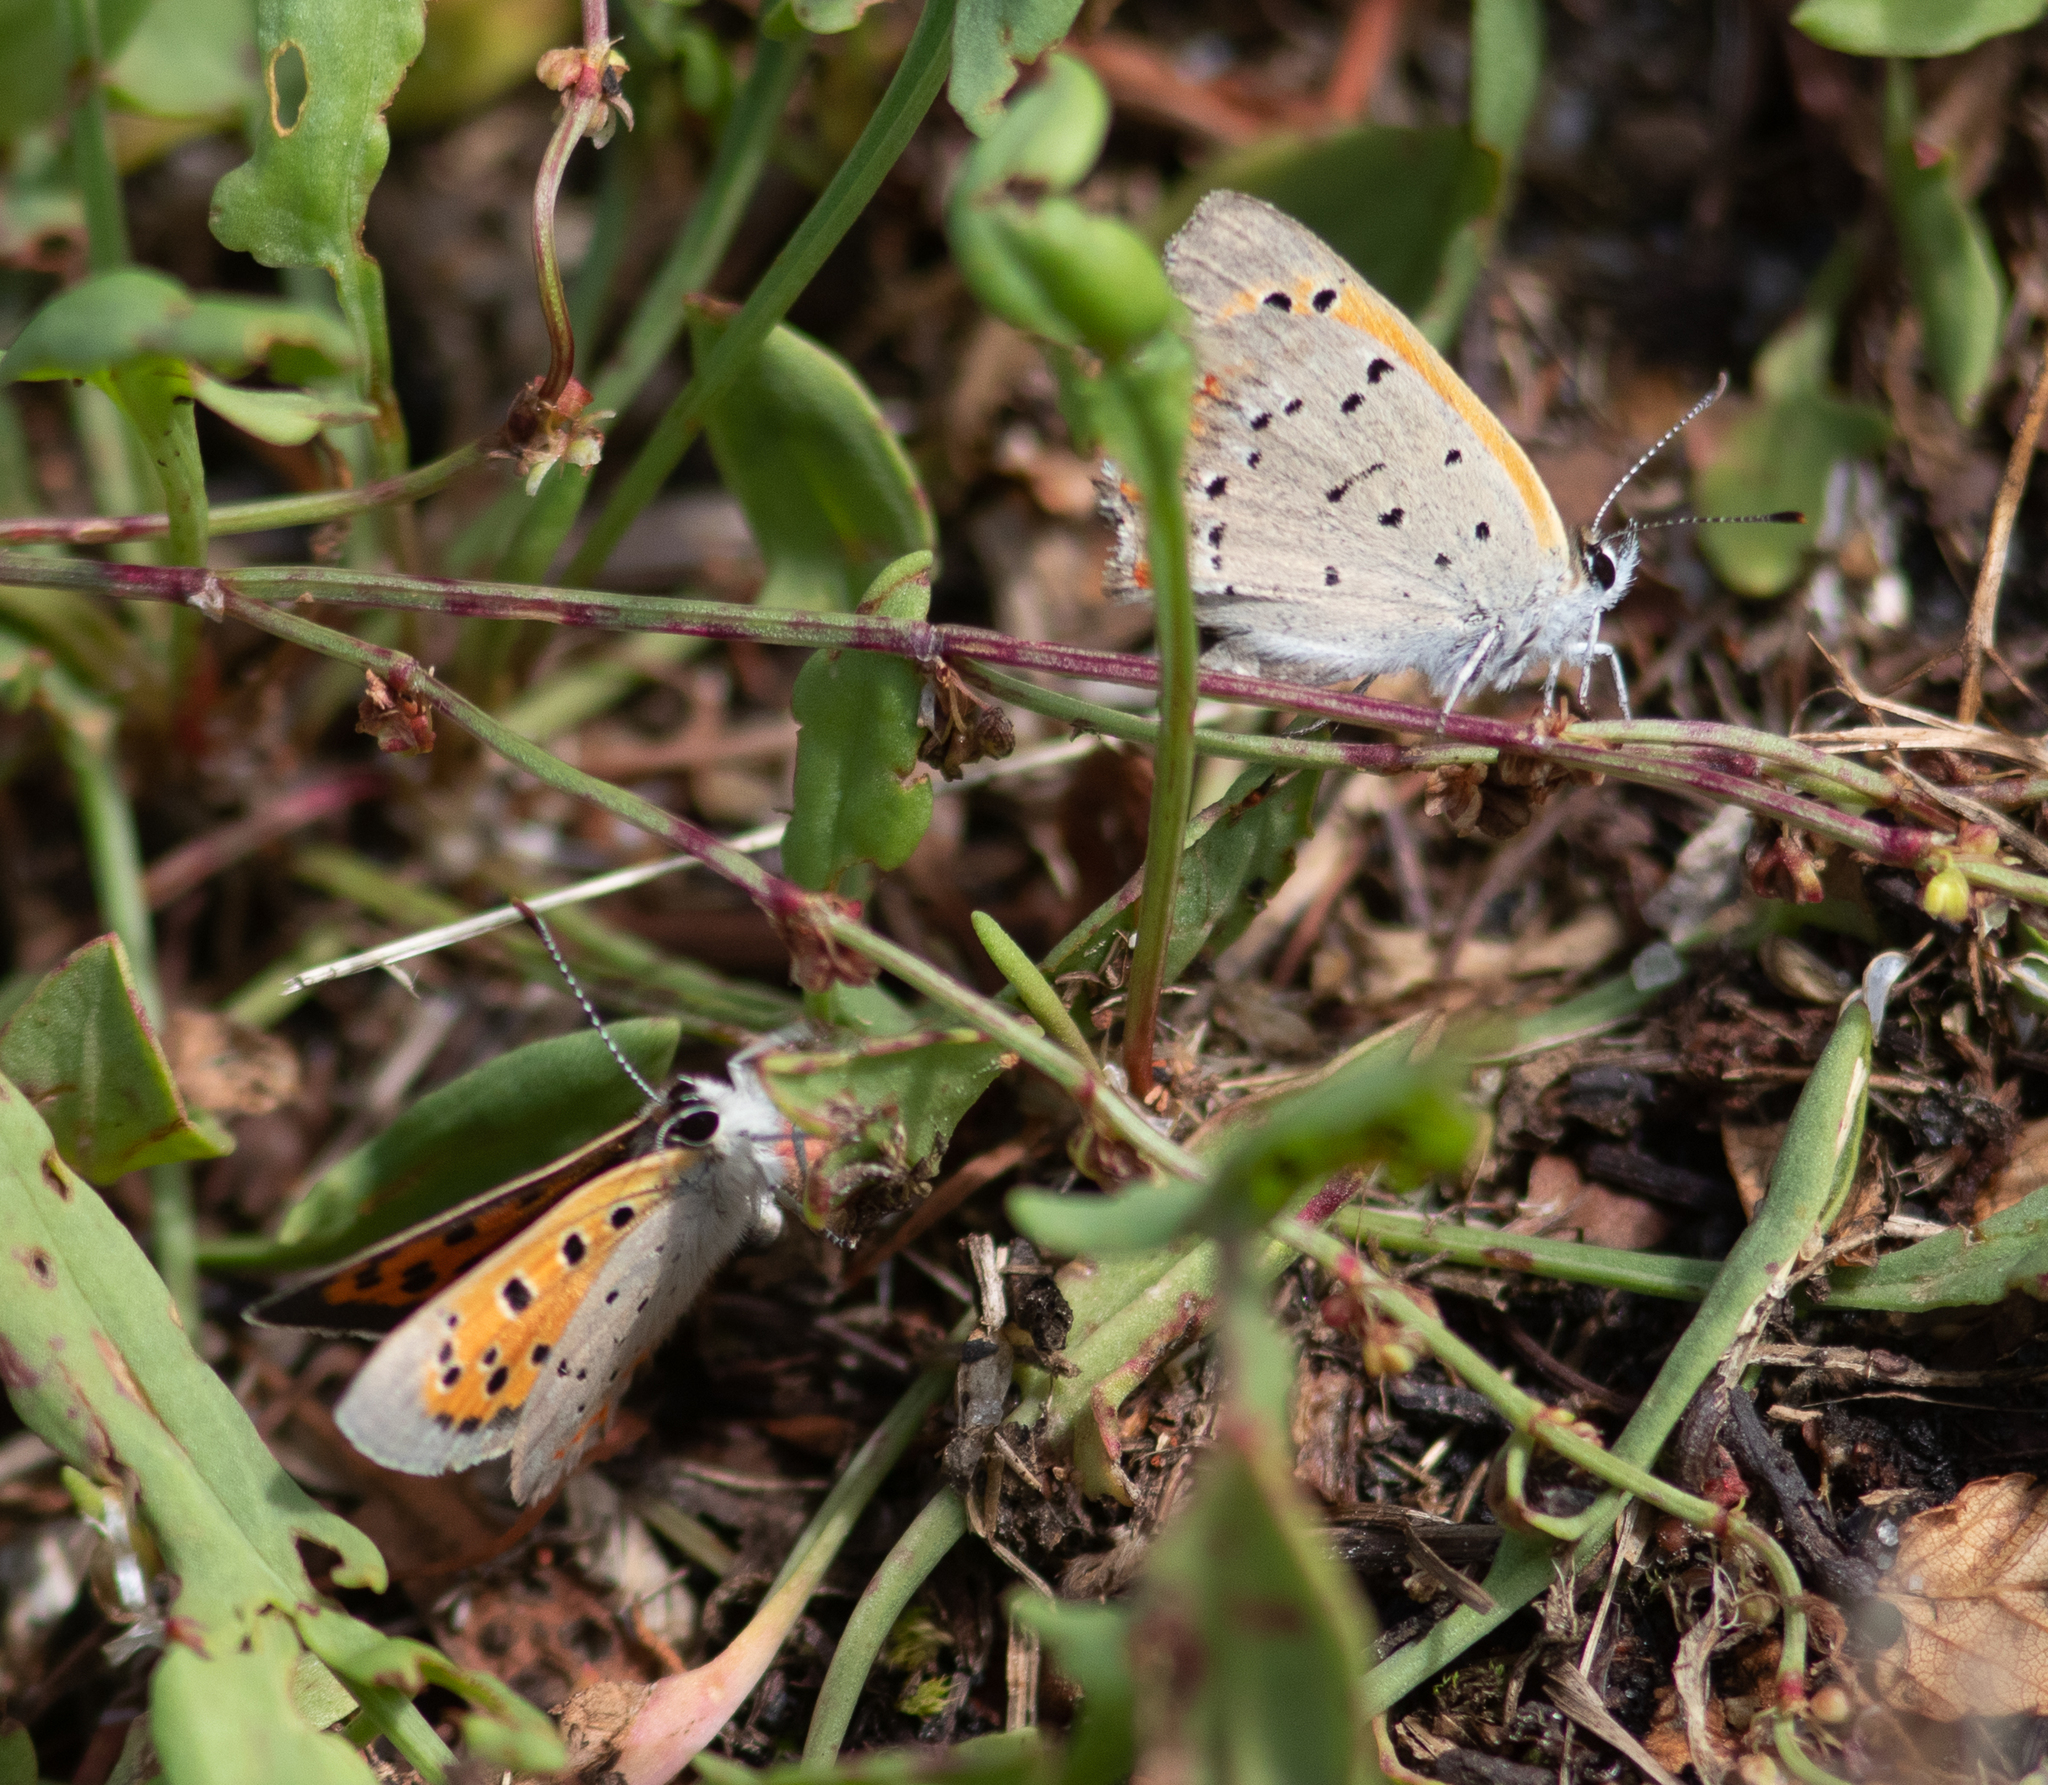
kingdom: Animalia
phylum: Arthropoda
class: Insecta
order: Lepidoptera
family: Lycaenidae
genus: Lycaena
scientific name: Lycaena hypophlaeas
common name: American copper
